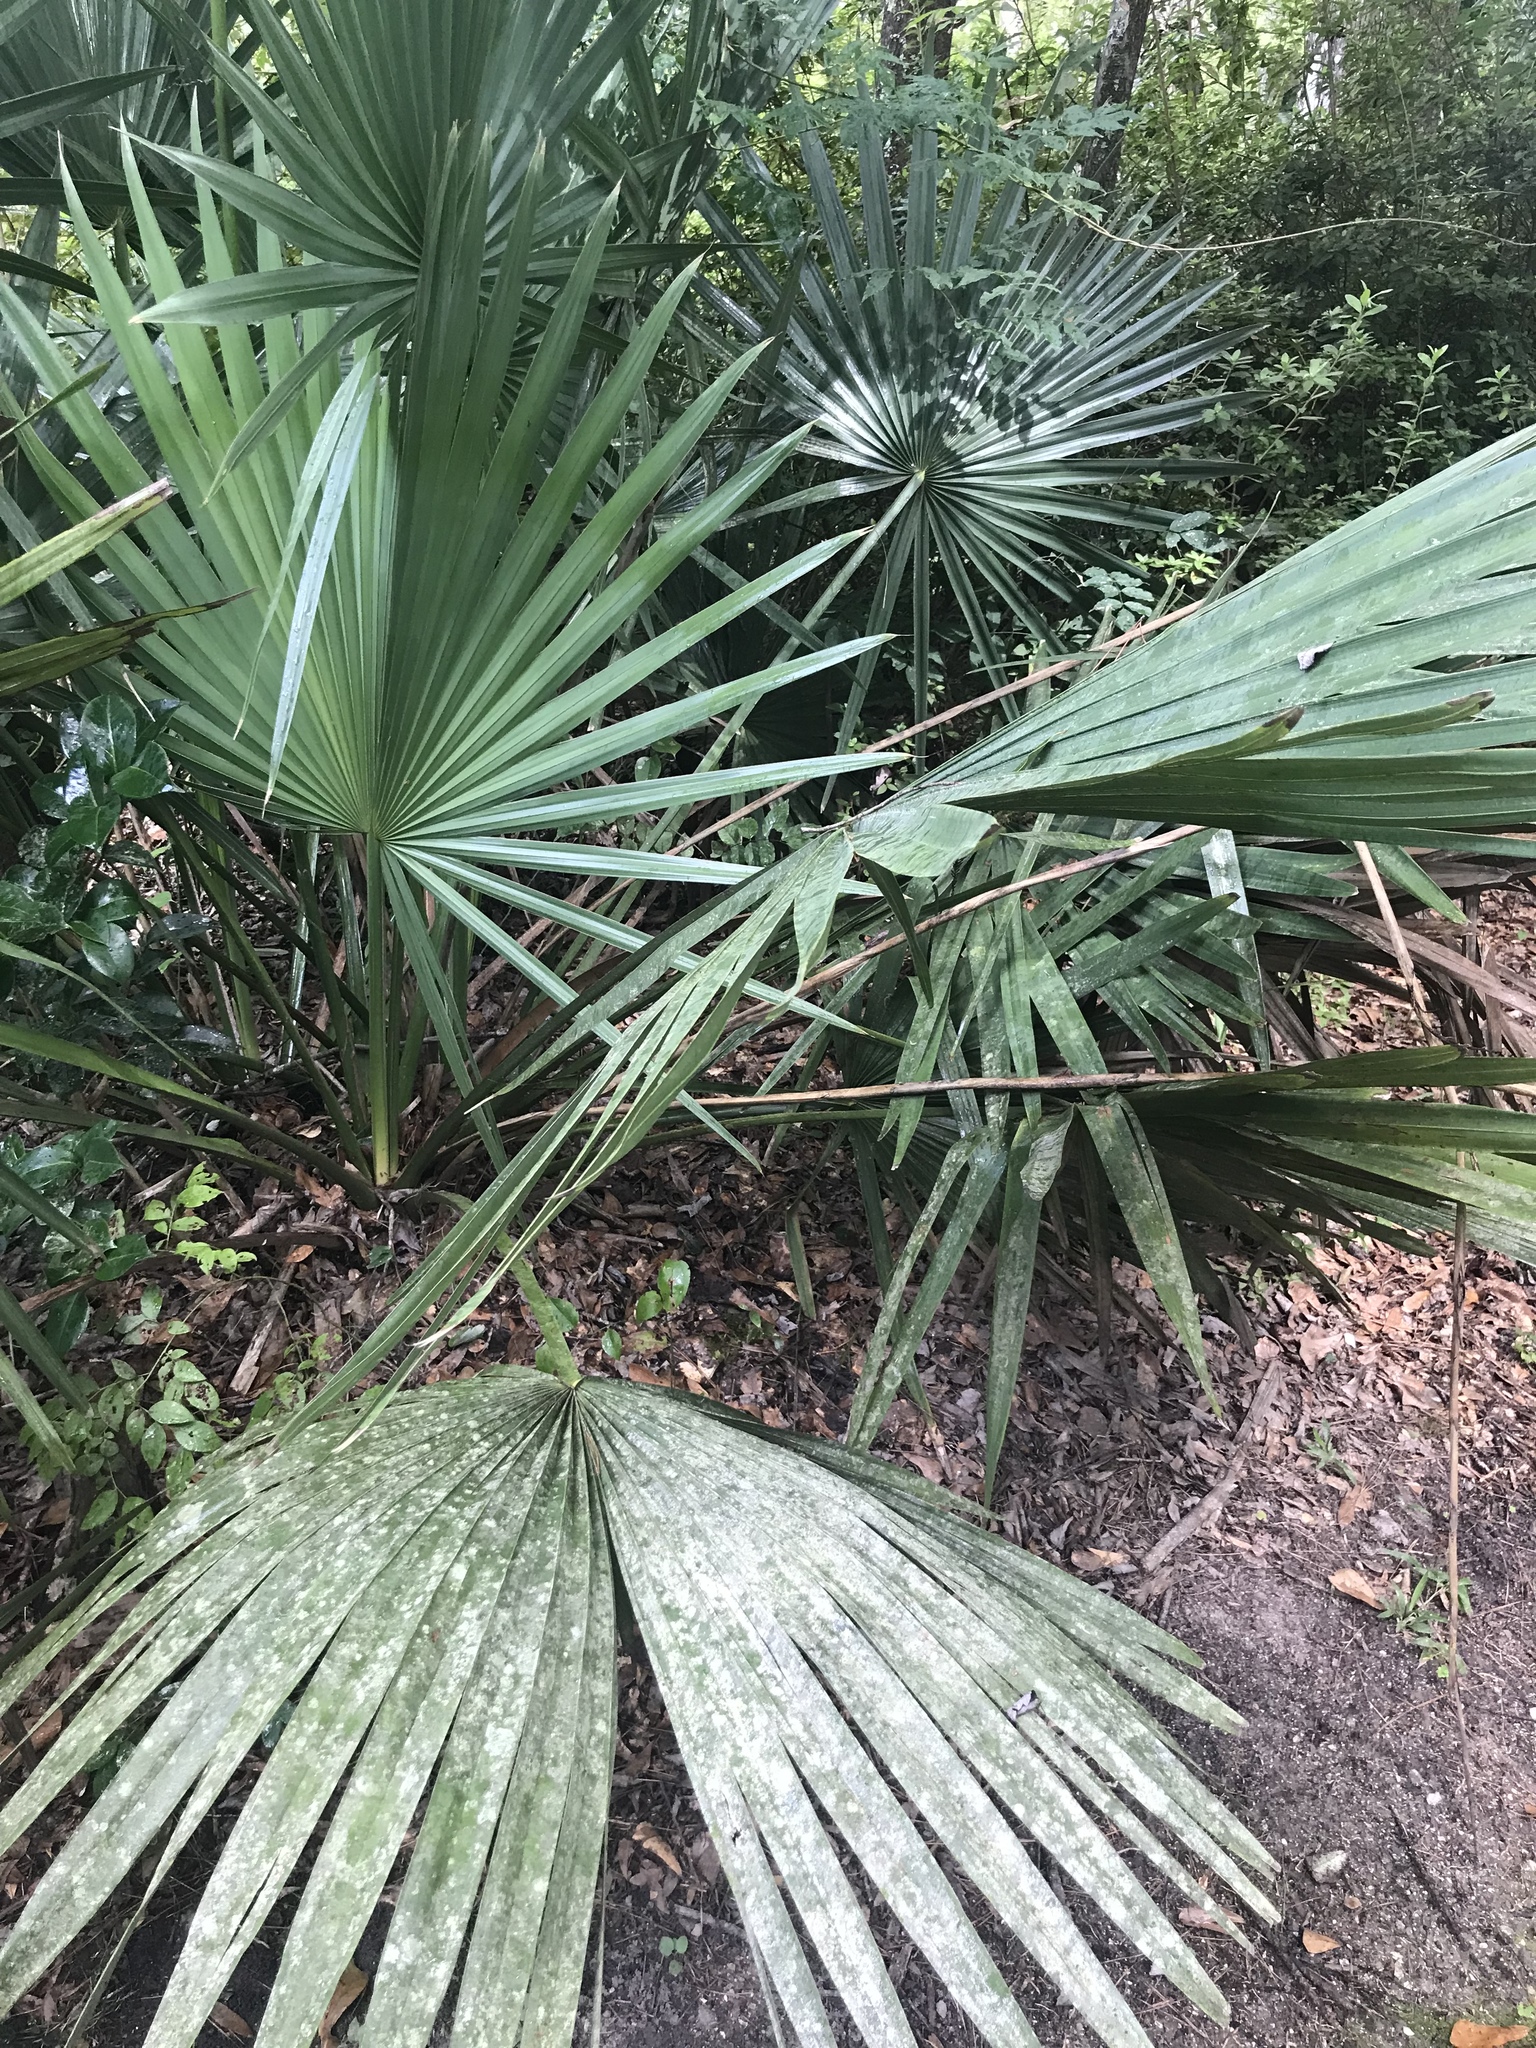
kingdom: Plantae
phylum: Tracheophyta
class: Liliopsida
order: Arecales
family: Arecaceae
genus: Sabal
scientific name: Sabal minor
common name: Dwarf palmetto
